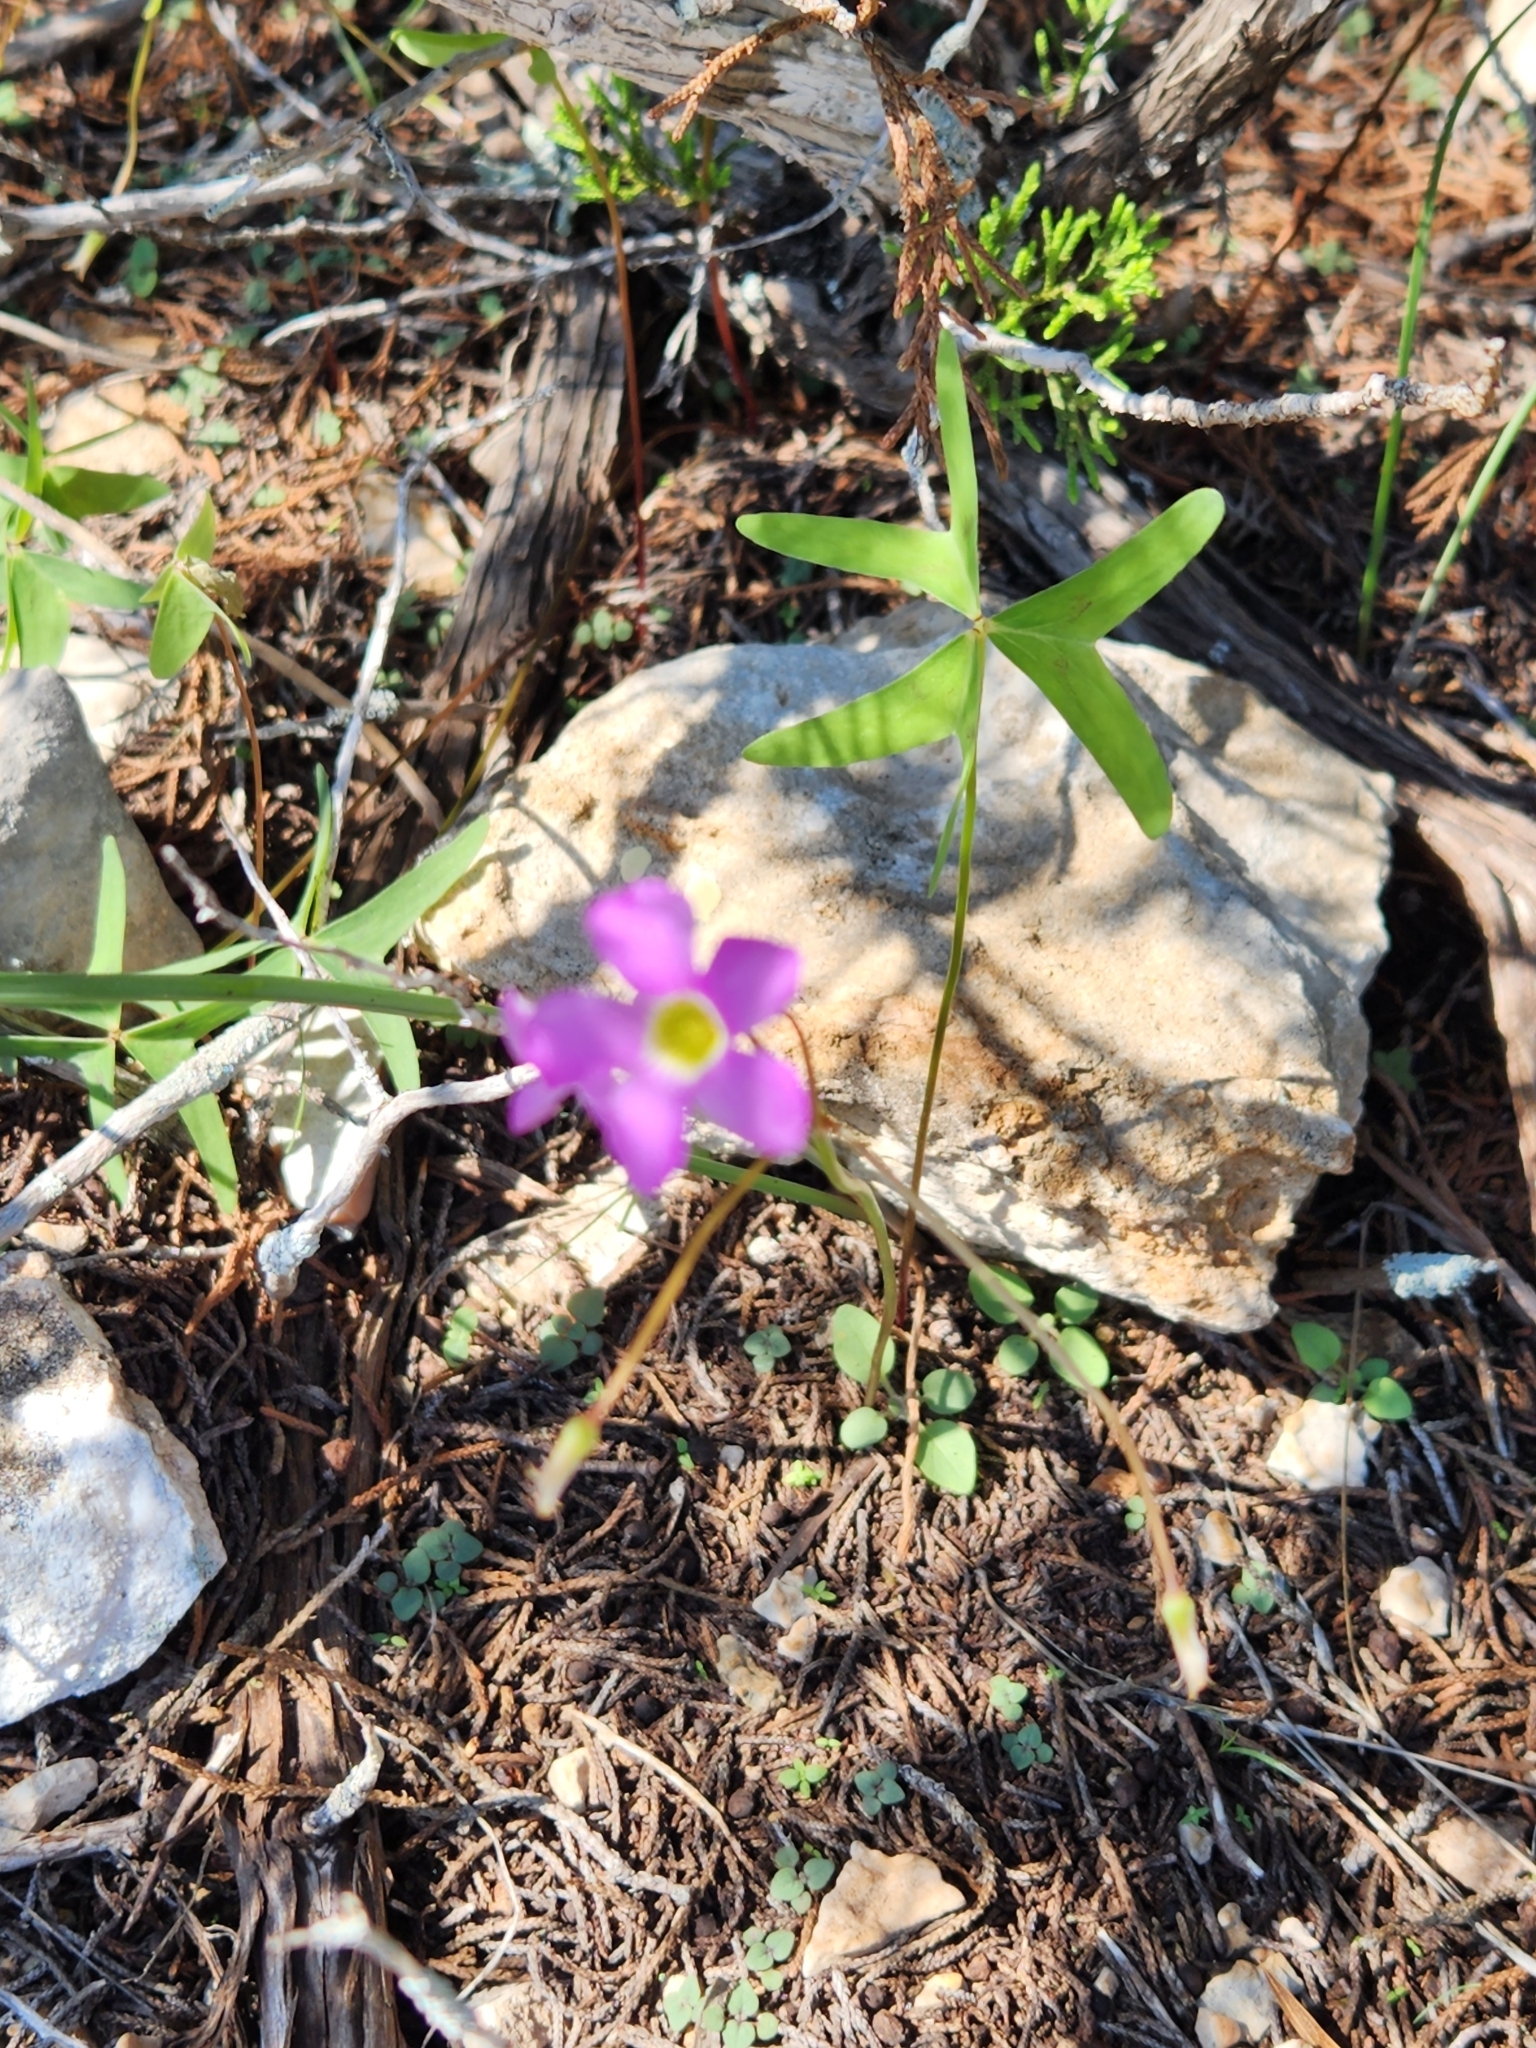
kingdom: Plantae
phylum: Tracheophyta
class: Magnoliopsida
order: Oxalidales
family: Oxalidaceae
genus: Oxalis
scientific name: Oxalis drummondii
